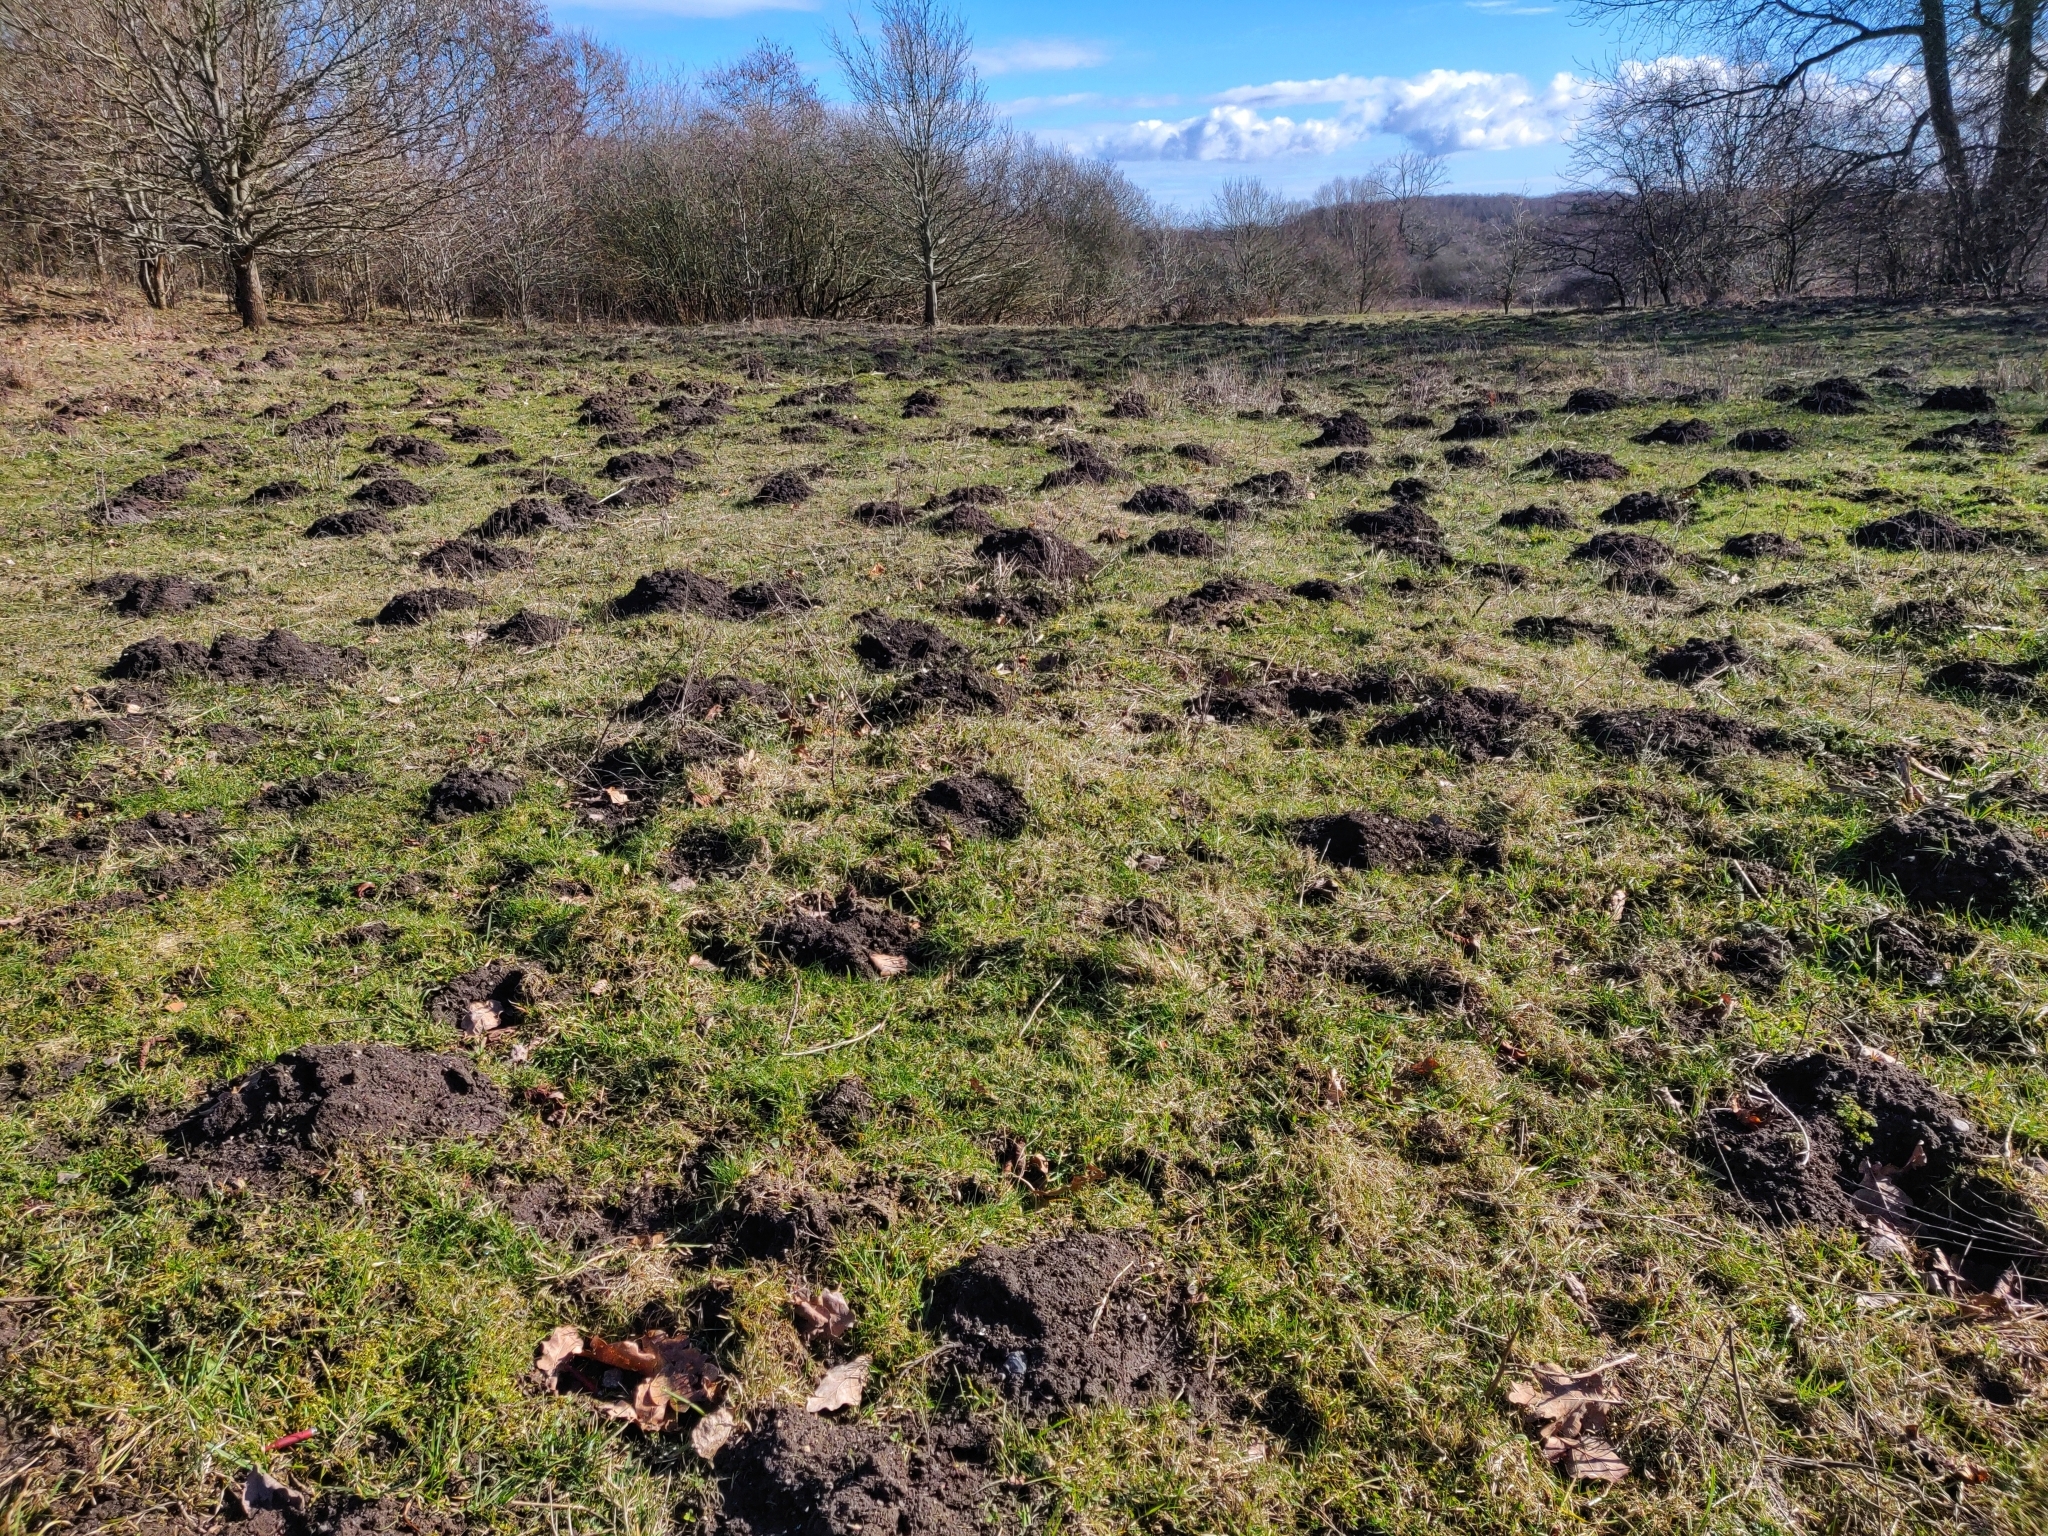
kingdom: Animalia
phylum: Chordata
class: Mammalia
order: Soricomorpha
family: Talpidae
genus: Talpa
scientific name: Talpa europaea
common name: European mole
